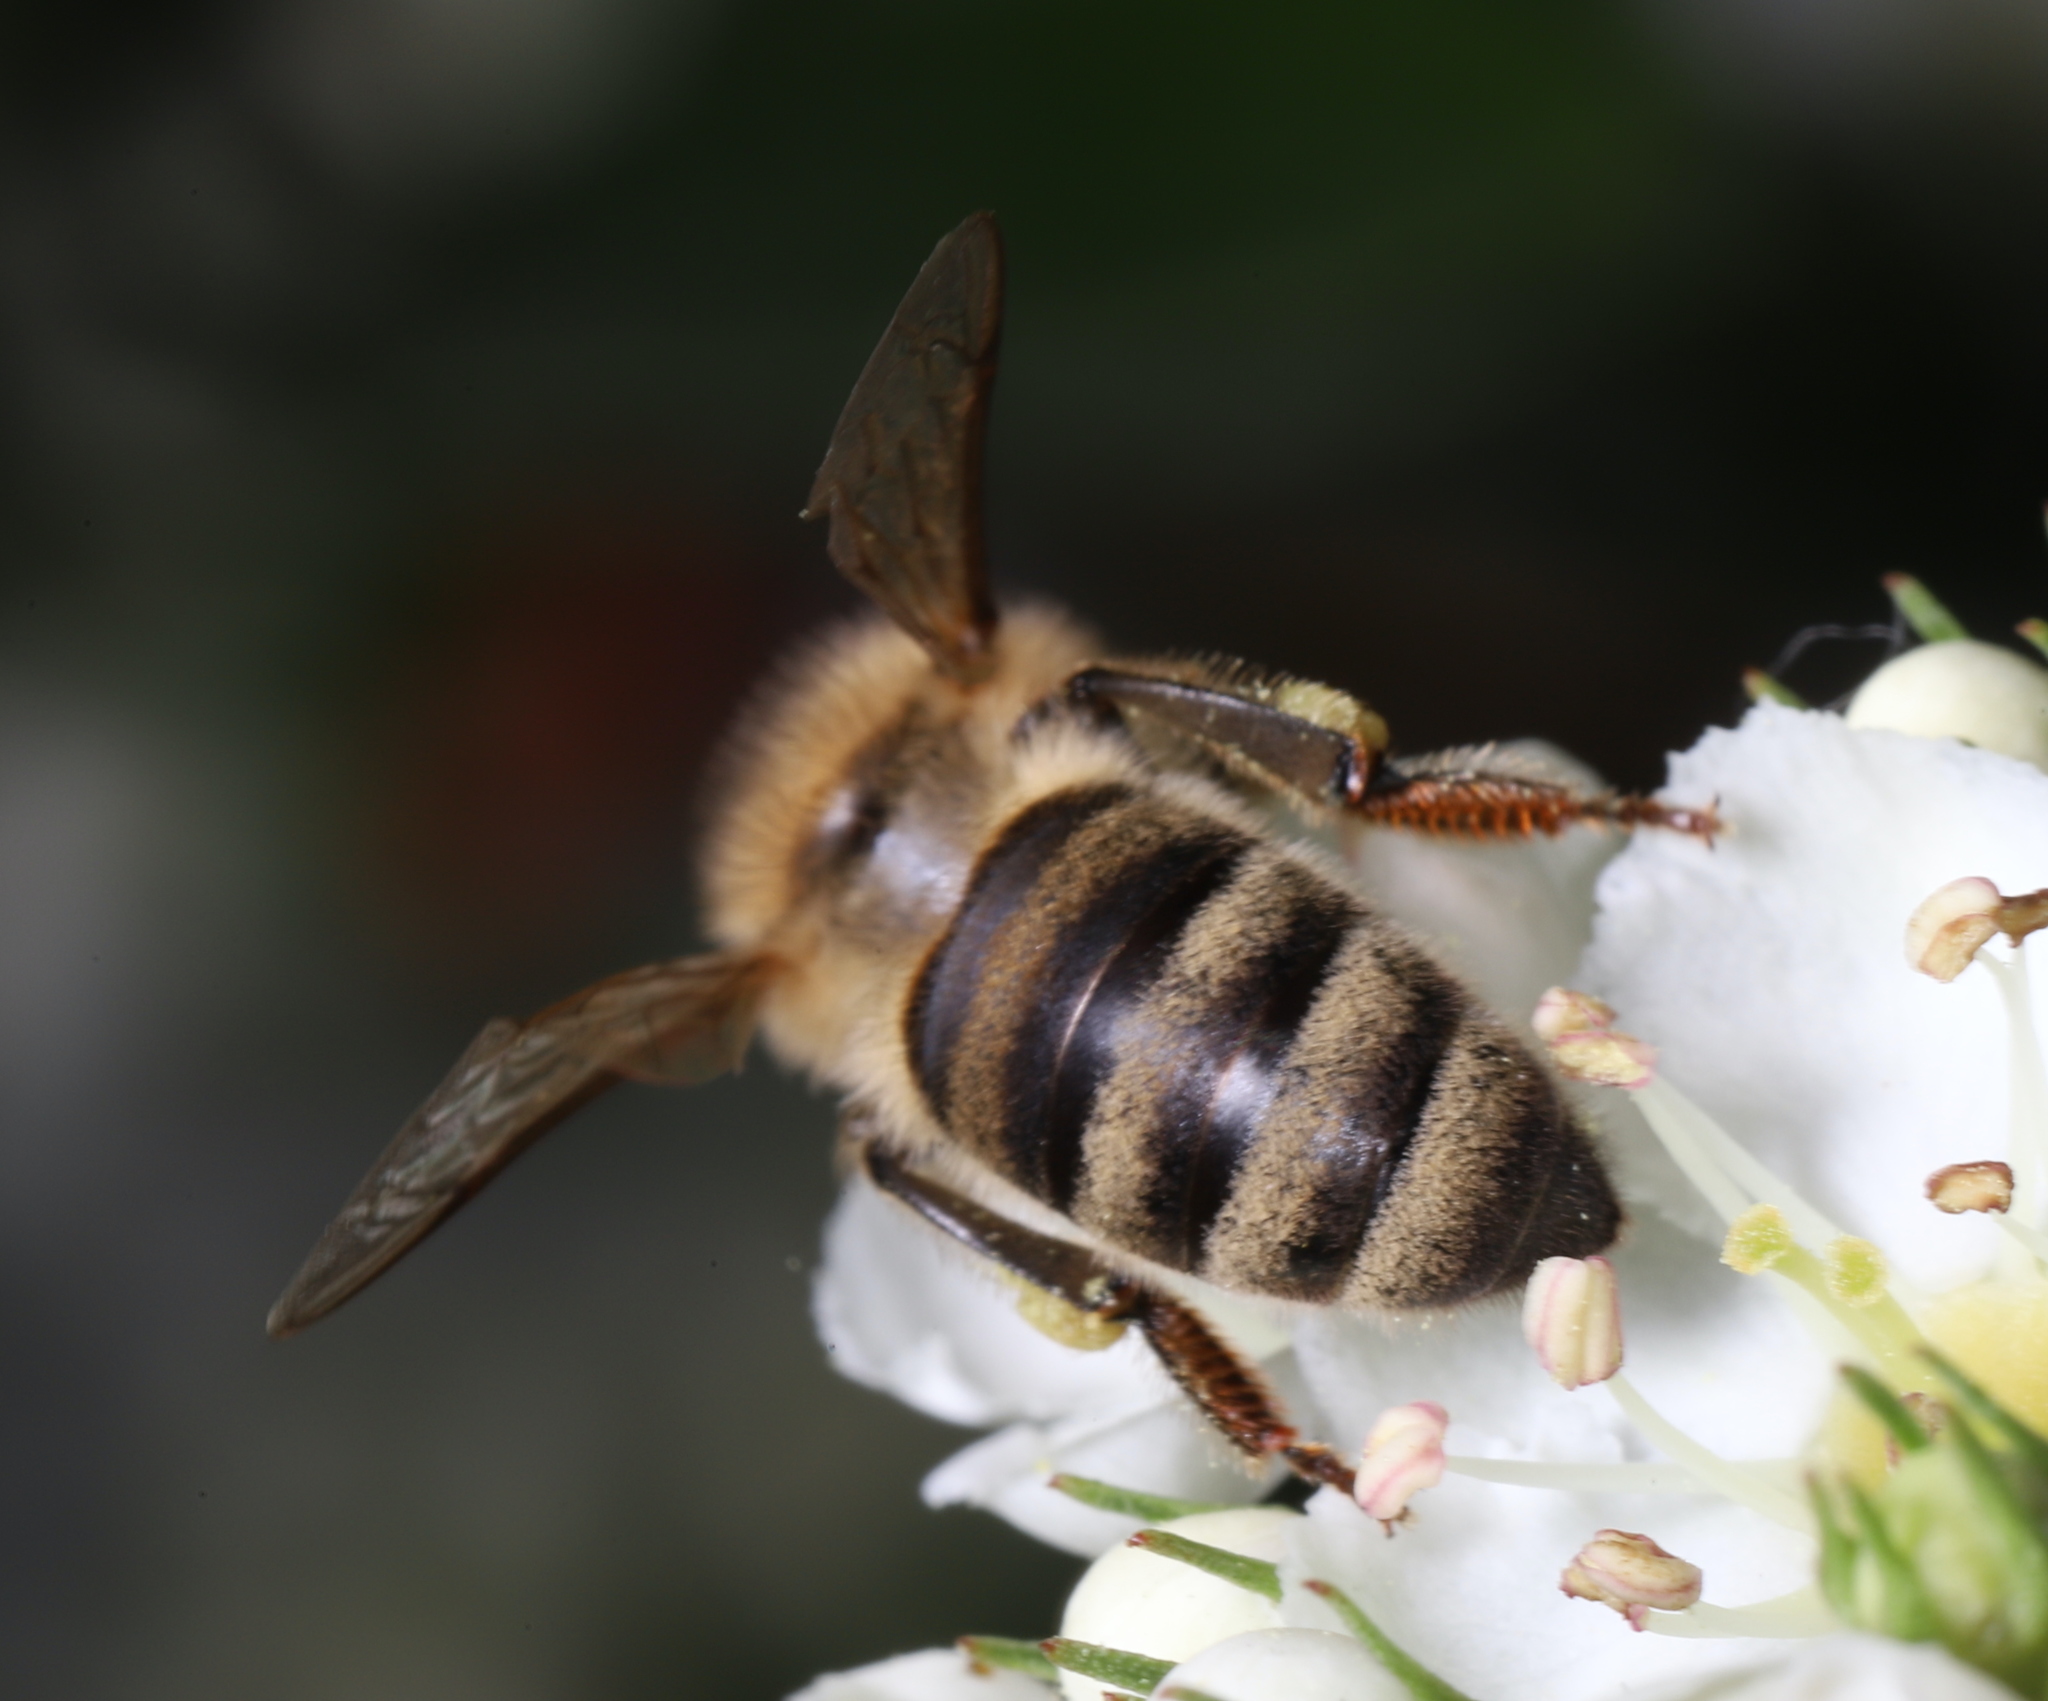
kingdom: Animalia
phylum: Arthropoda
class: Insecta
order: Hymenoptera
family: Apidae
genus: Apis
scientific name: Apis mellifera
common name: Honey bee
